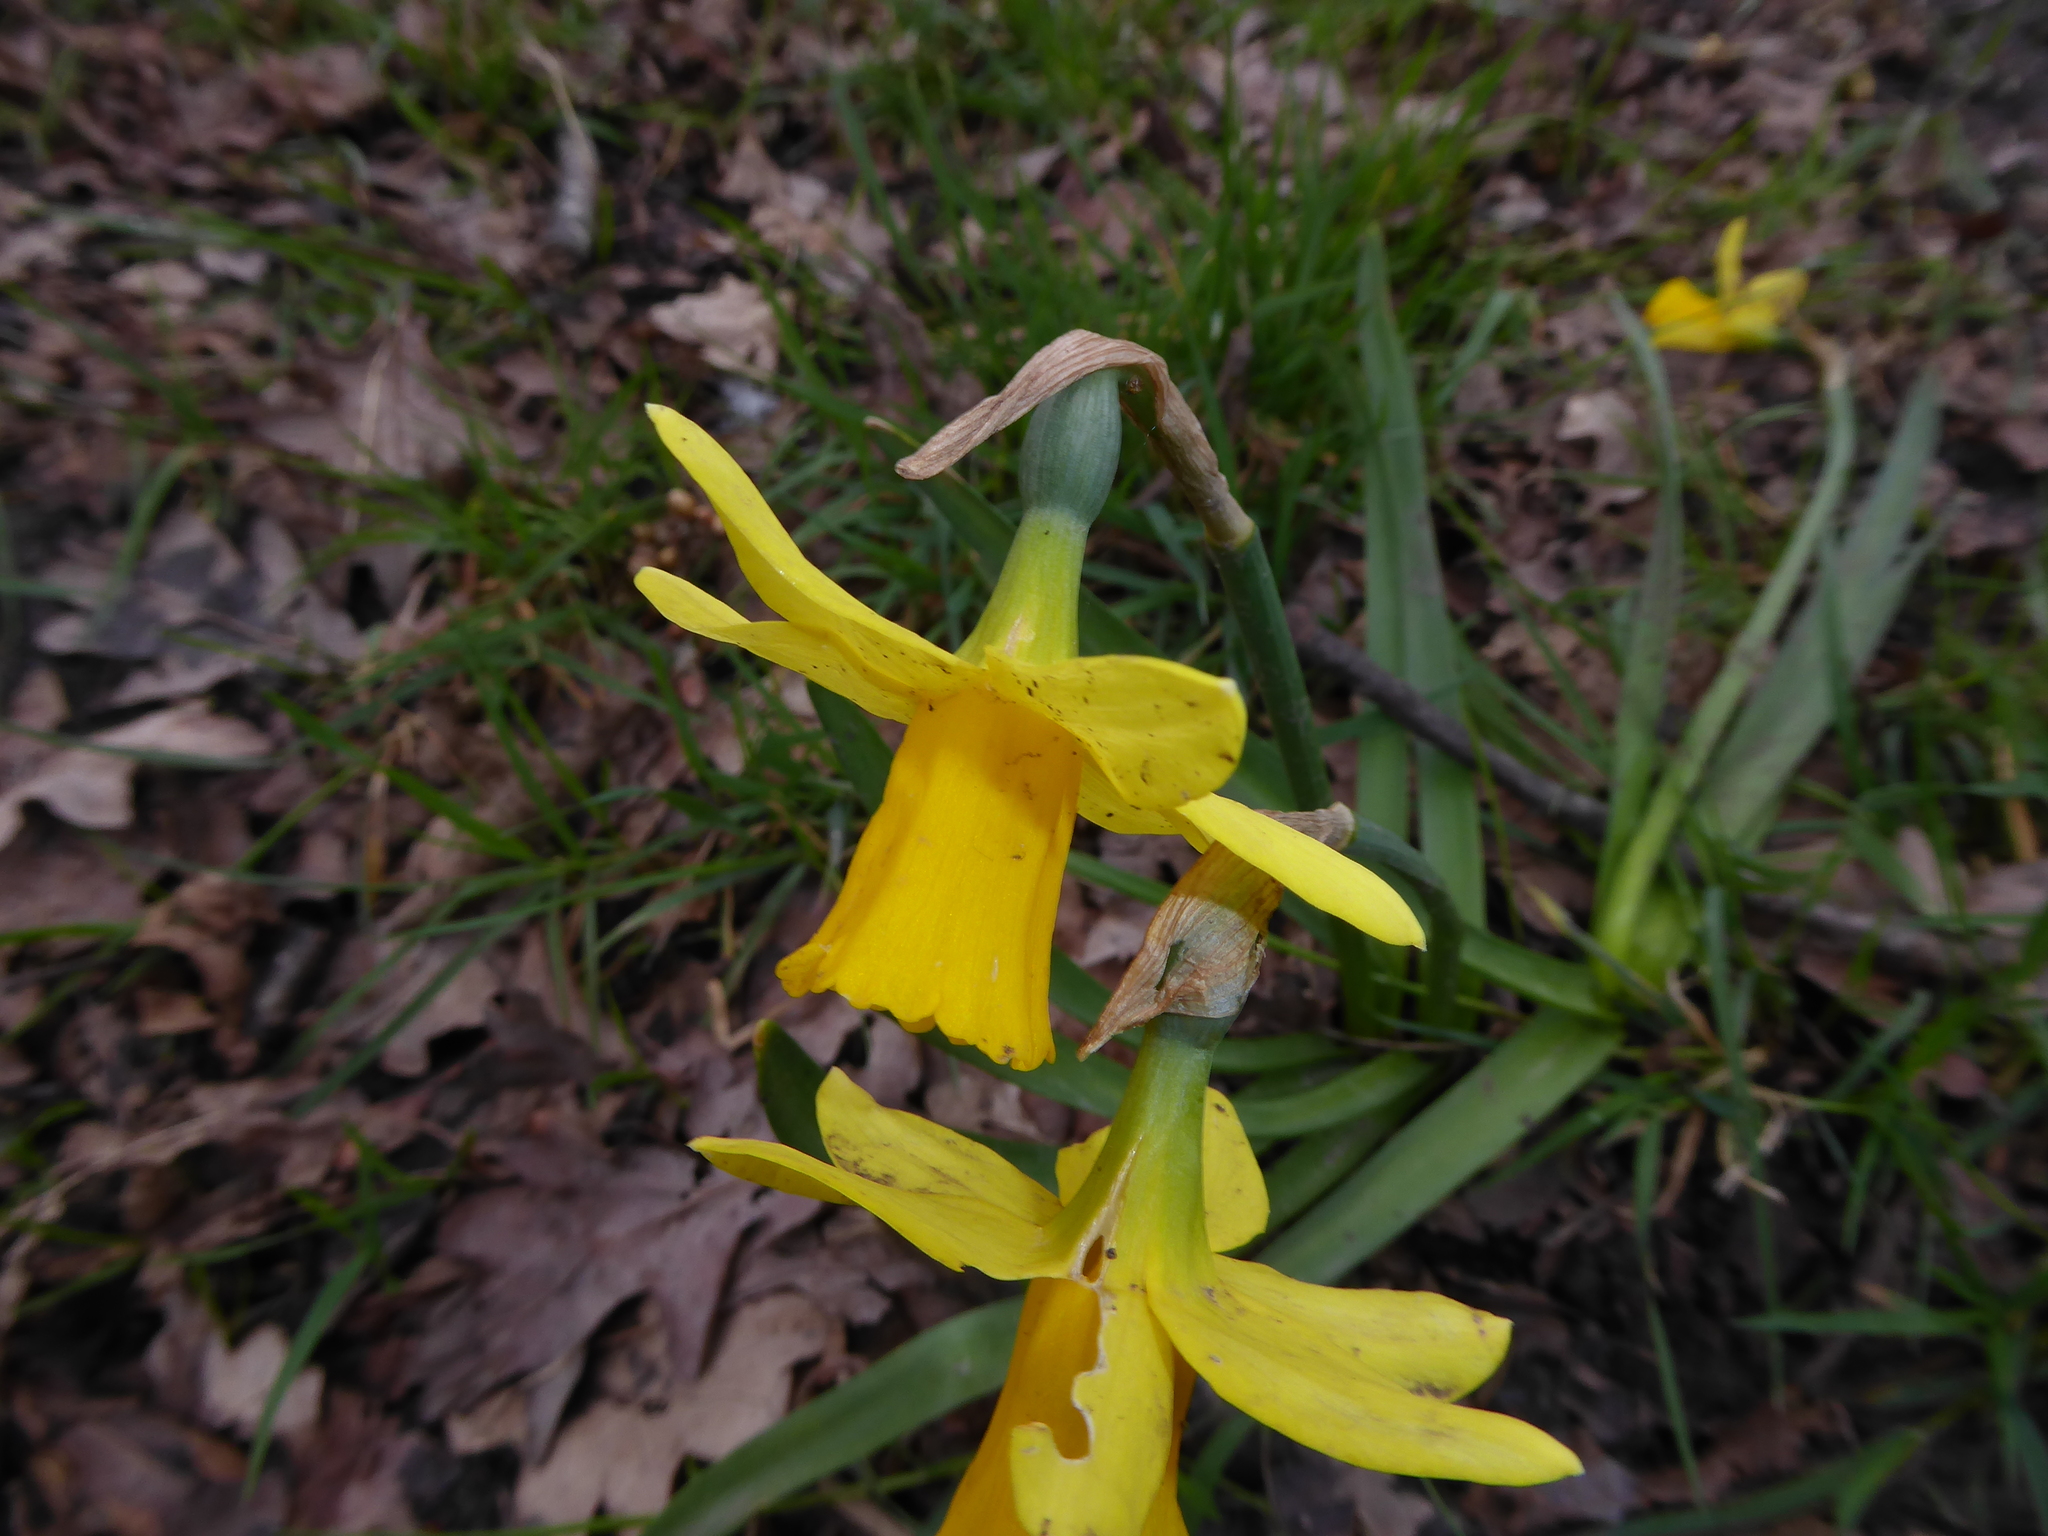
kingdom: Plantae
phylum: Tracheophyta
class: Liliopsida
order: Asparagales
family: Amaryllidaceae
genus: Narcissus
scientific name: Narcissus cyclazetta
